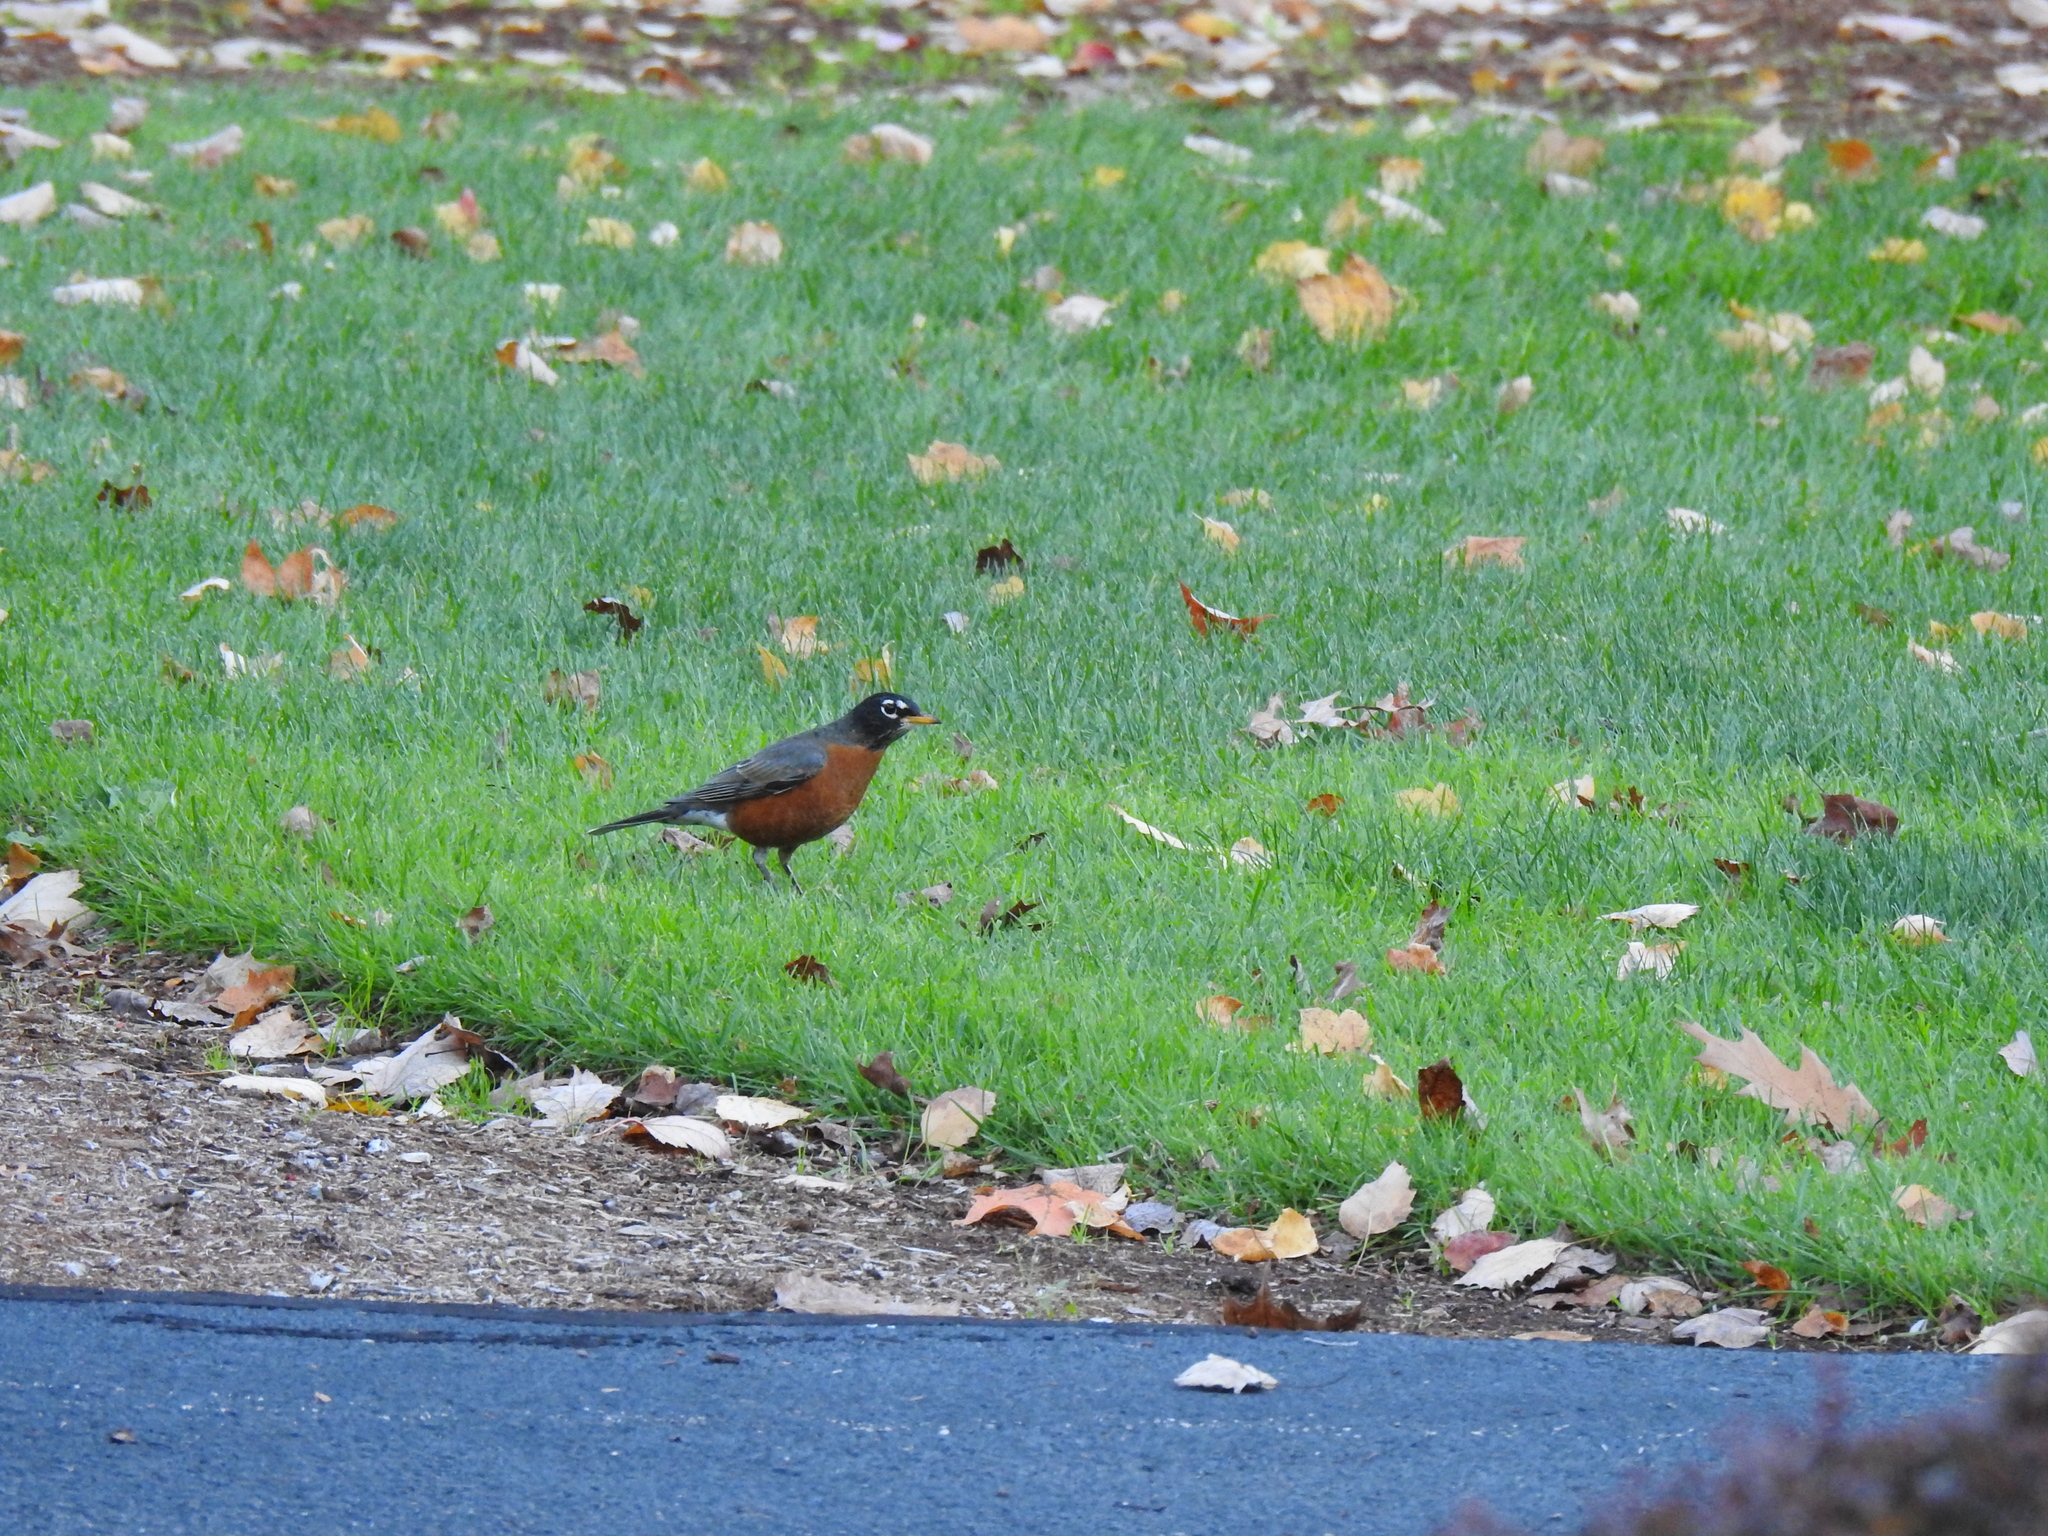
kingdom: Animalia
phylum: Chordata
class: Aves
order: Passeriformes
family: Turdidae
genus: Turdus
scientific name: Turdus migratorius
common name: American robin
